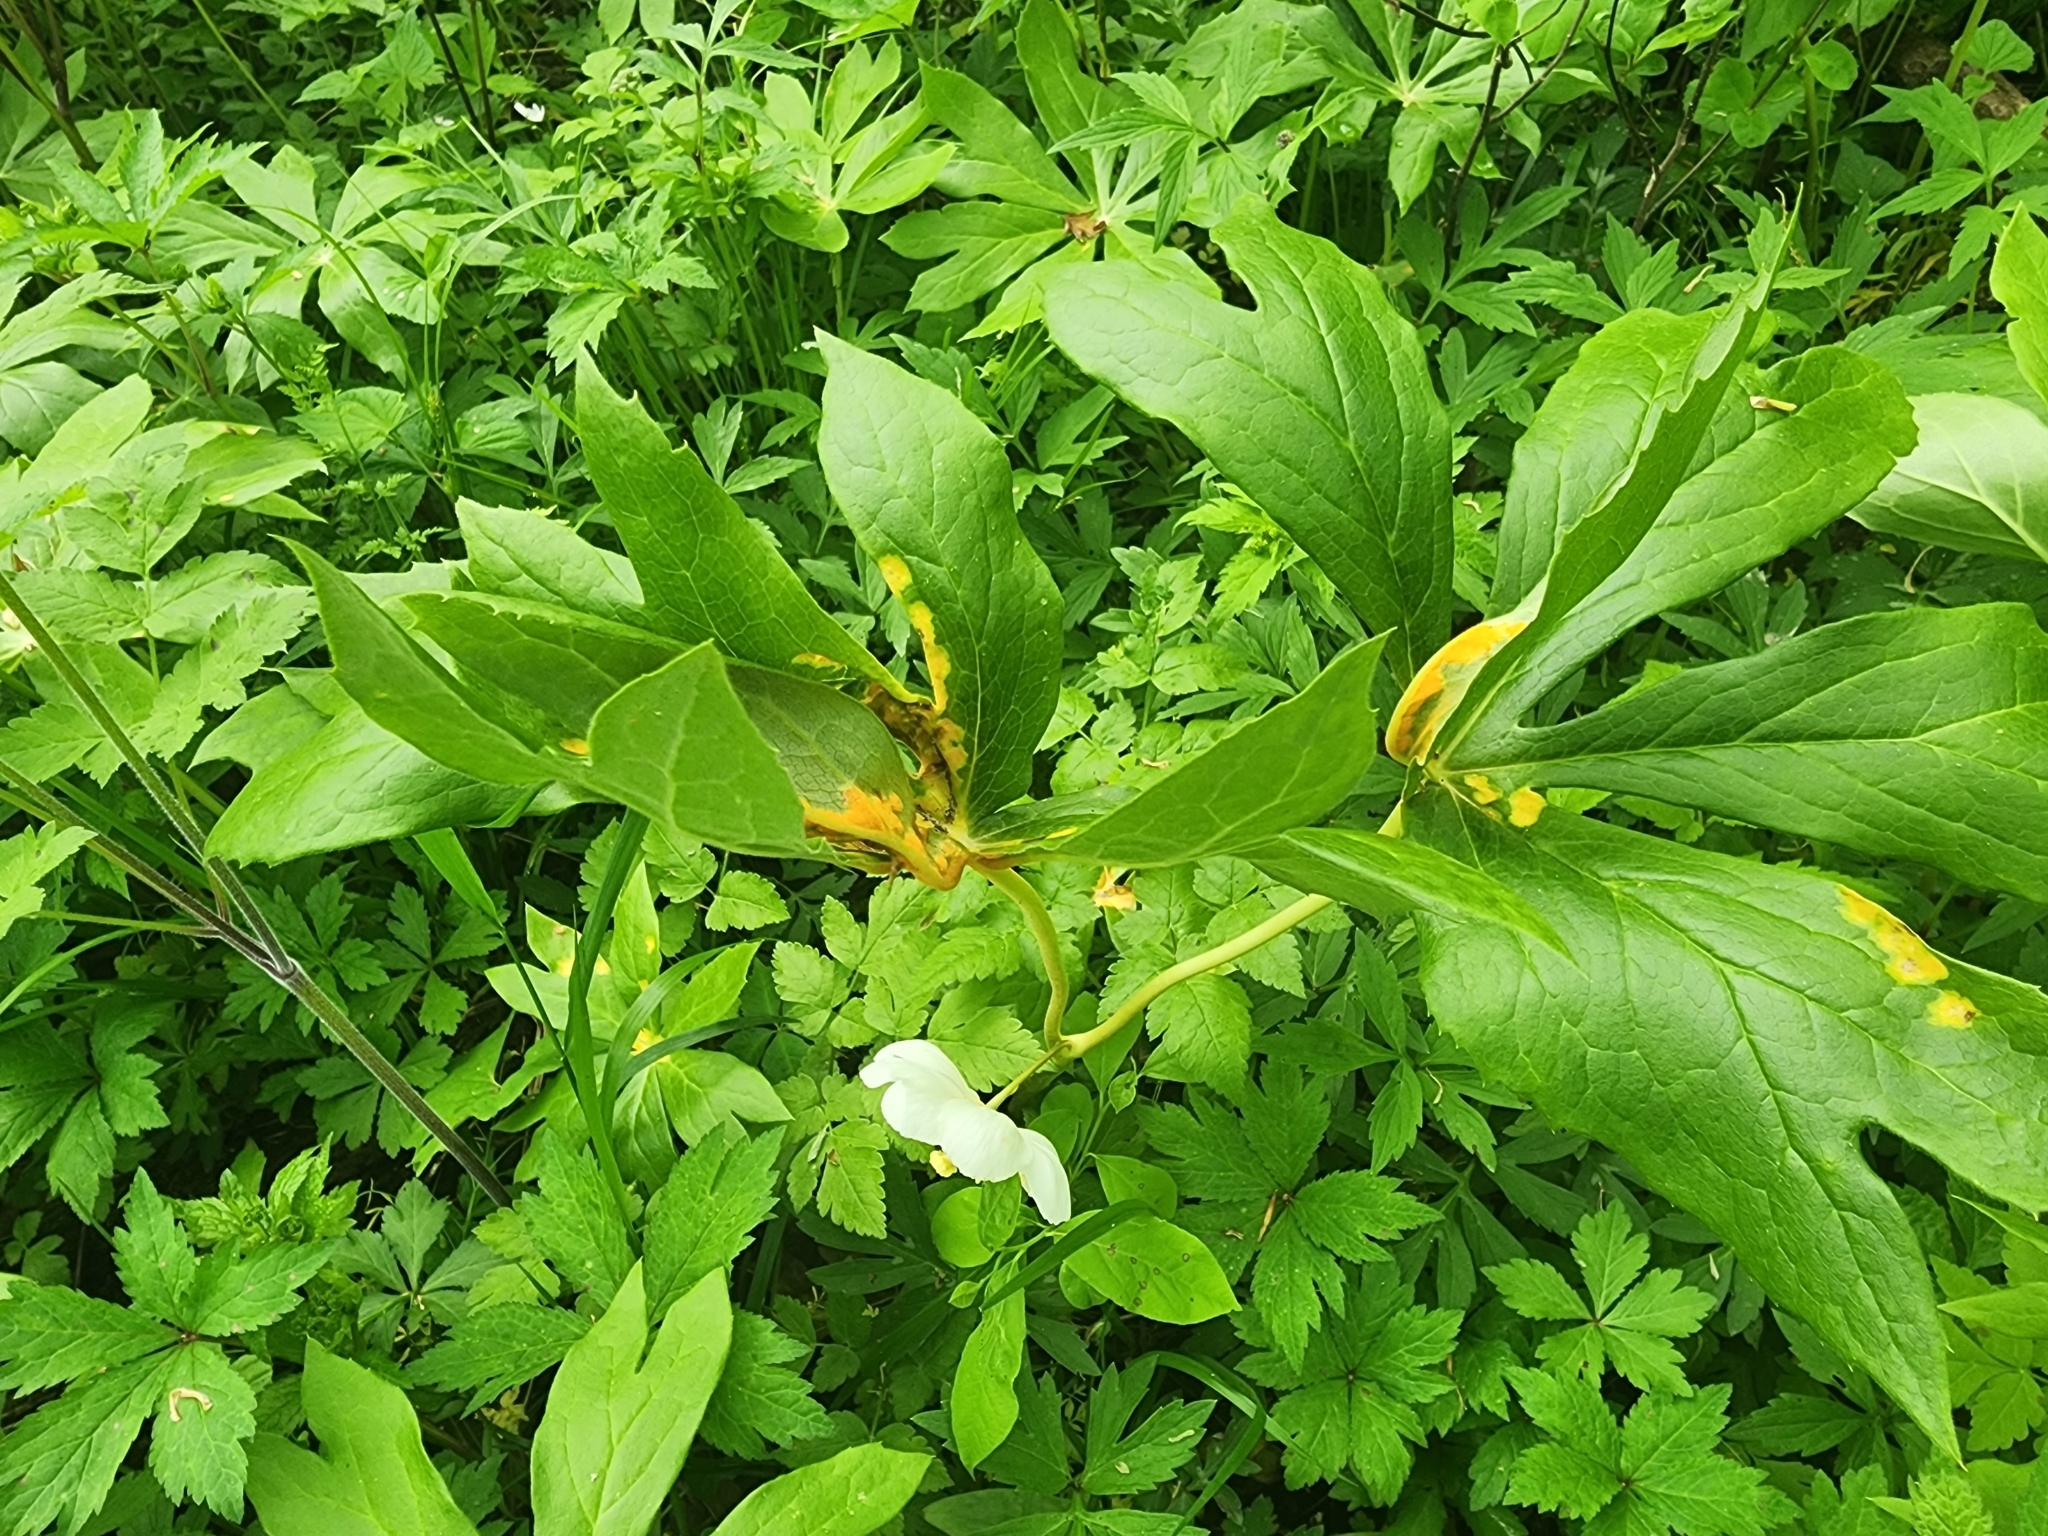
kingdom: Fungi
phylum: Basidiomycota
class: Pucciniomycetes
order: Pucciniales
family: Pucciniaceae
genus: Puccinia
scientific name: Puccinia podophylli
